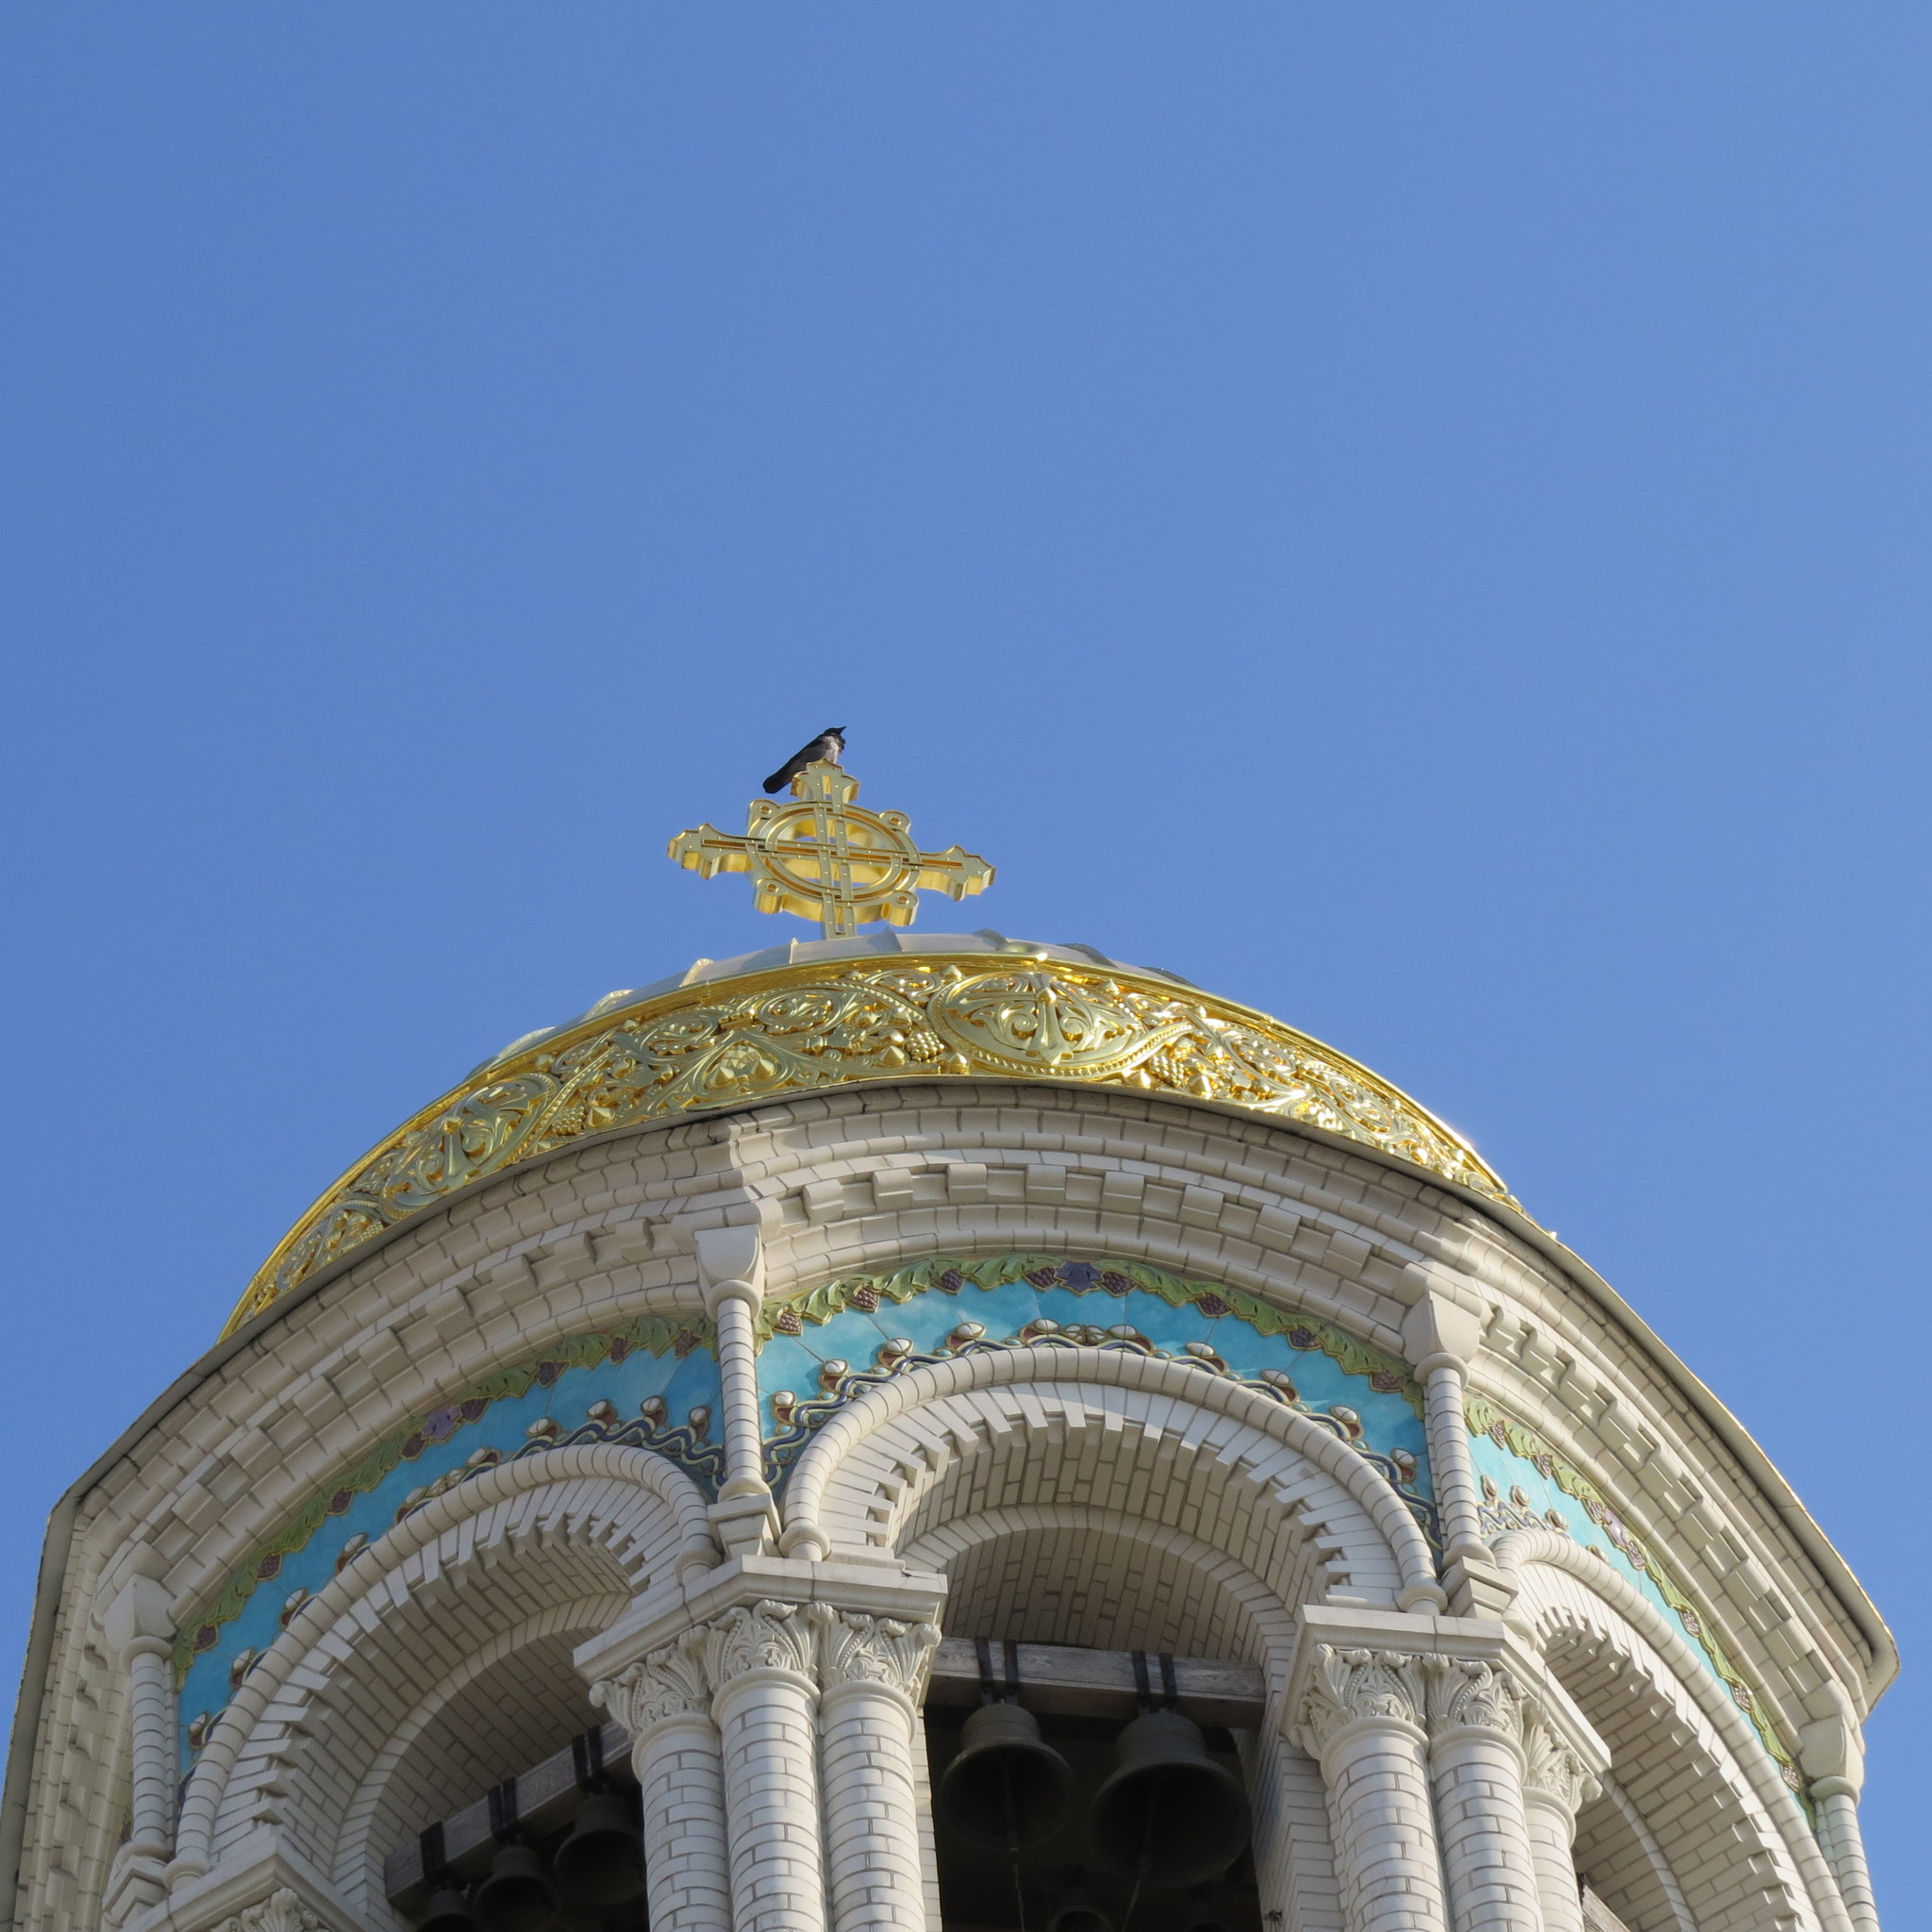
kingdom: Animalia
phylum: Chordata
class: Aves
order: Passeriformes
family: Corvidae
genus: Corvus
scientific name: Corvus cornix
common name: Hooded crow
